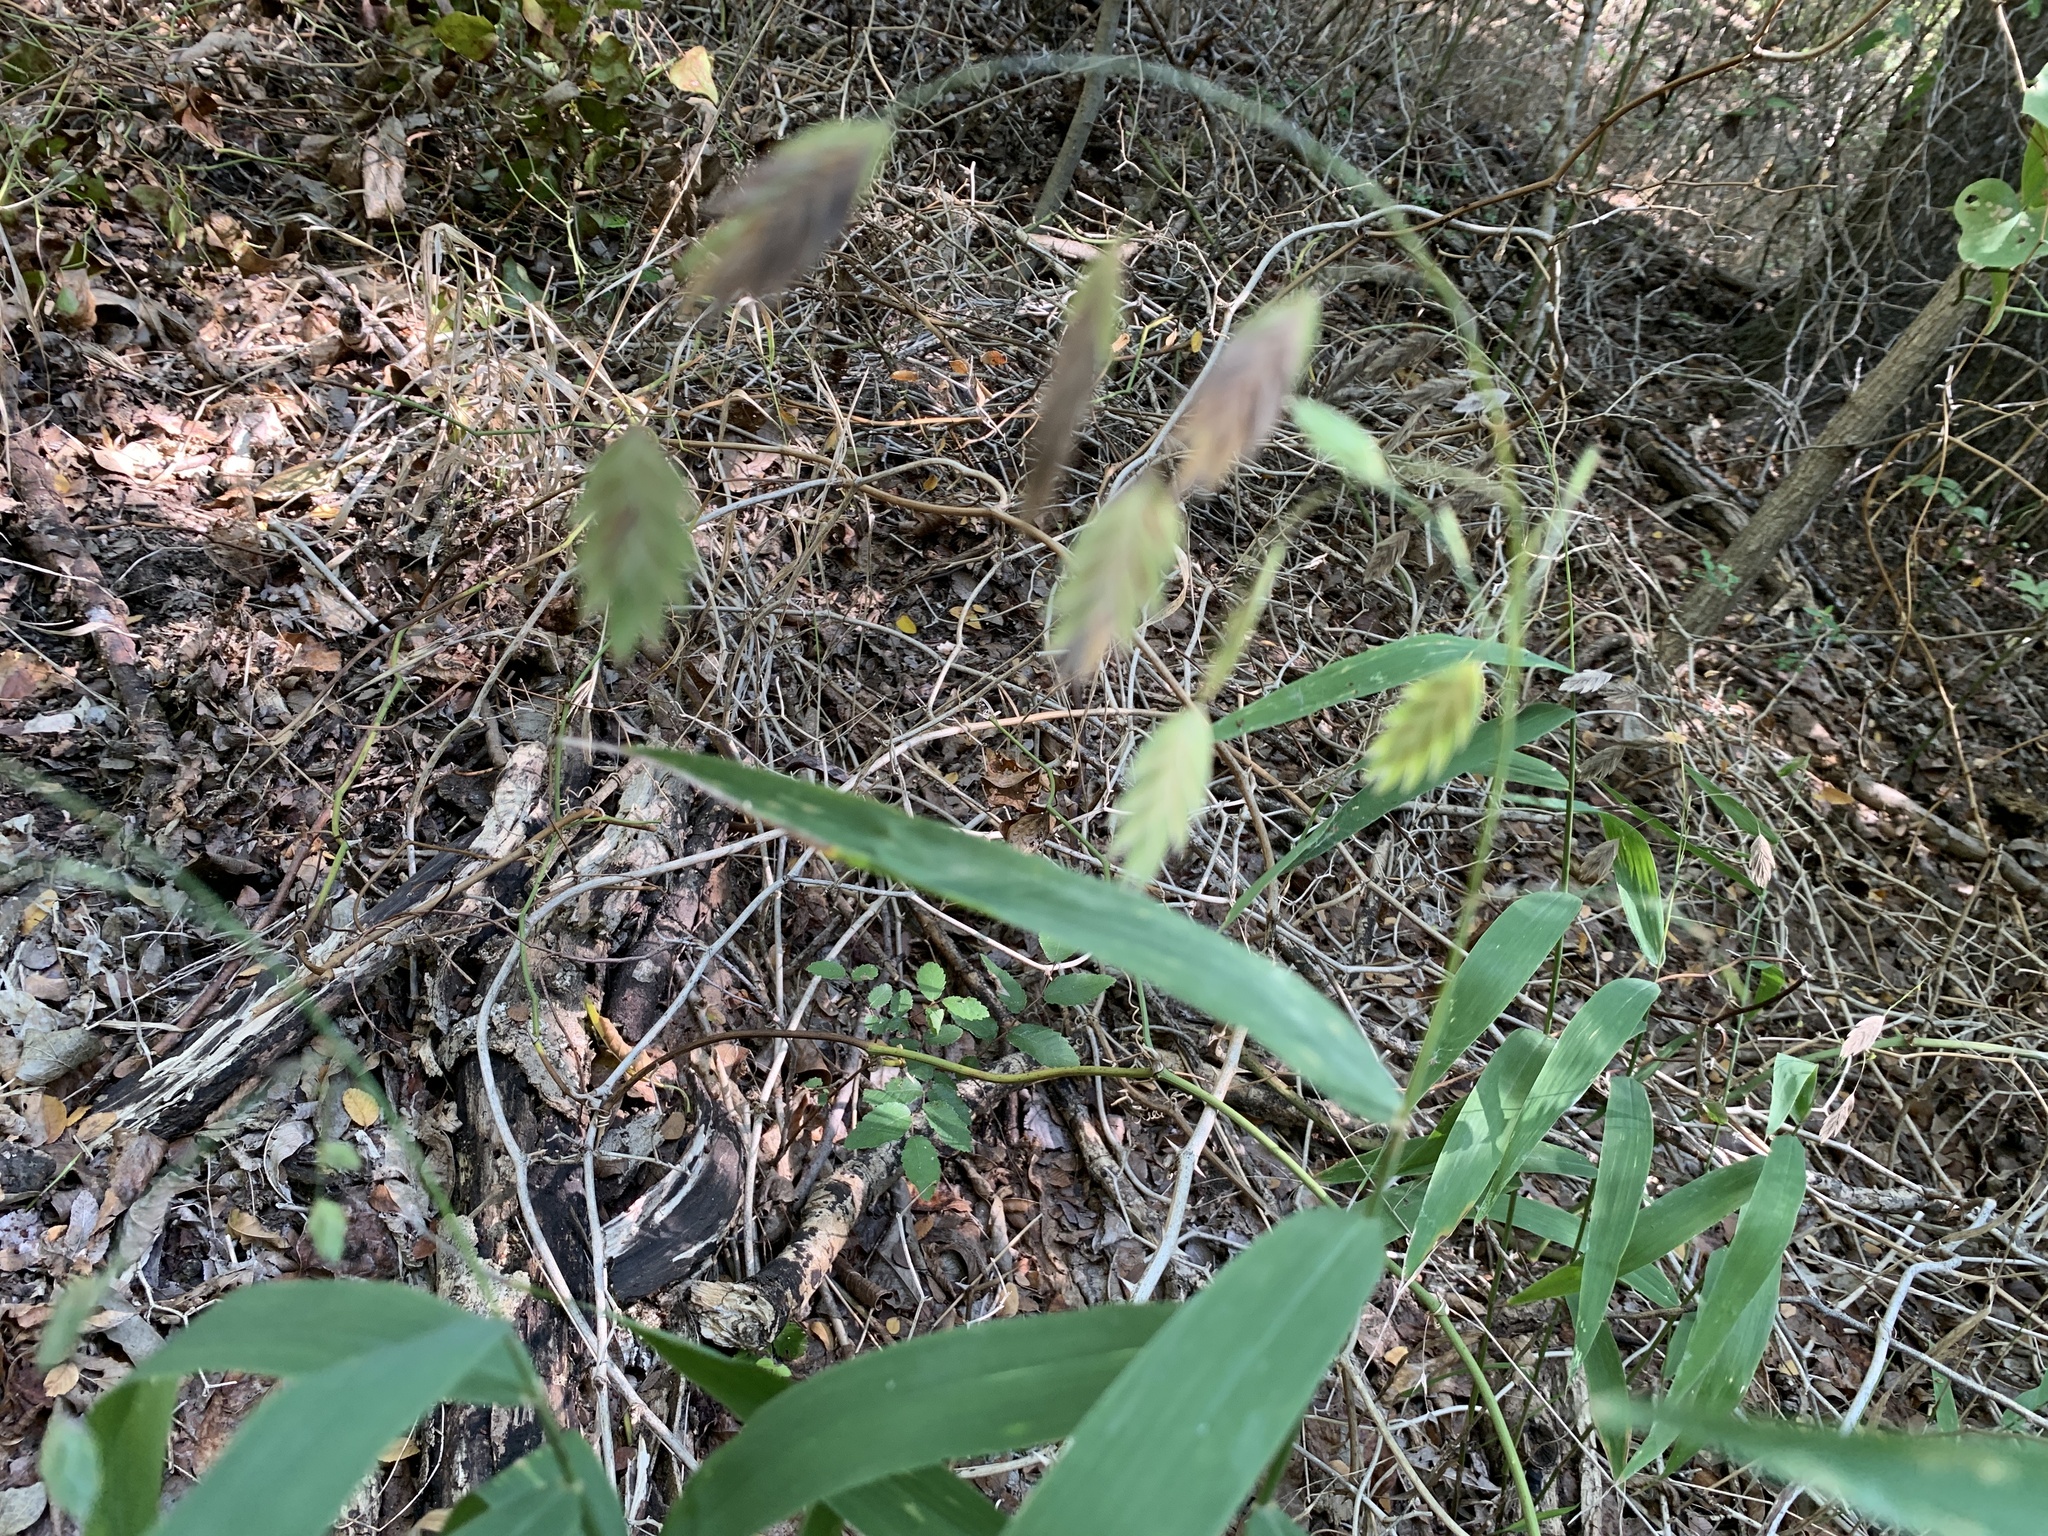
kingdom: Plantae
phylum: Tracheophyta
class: Liliopsida
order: Poales
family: Poaceae
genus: Chasmanthium
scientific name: Chasmanthium latifolium
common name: Broad-leaved chasmanthium
